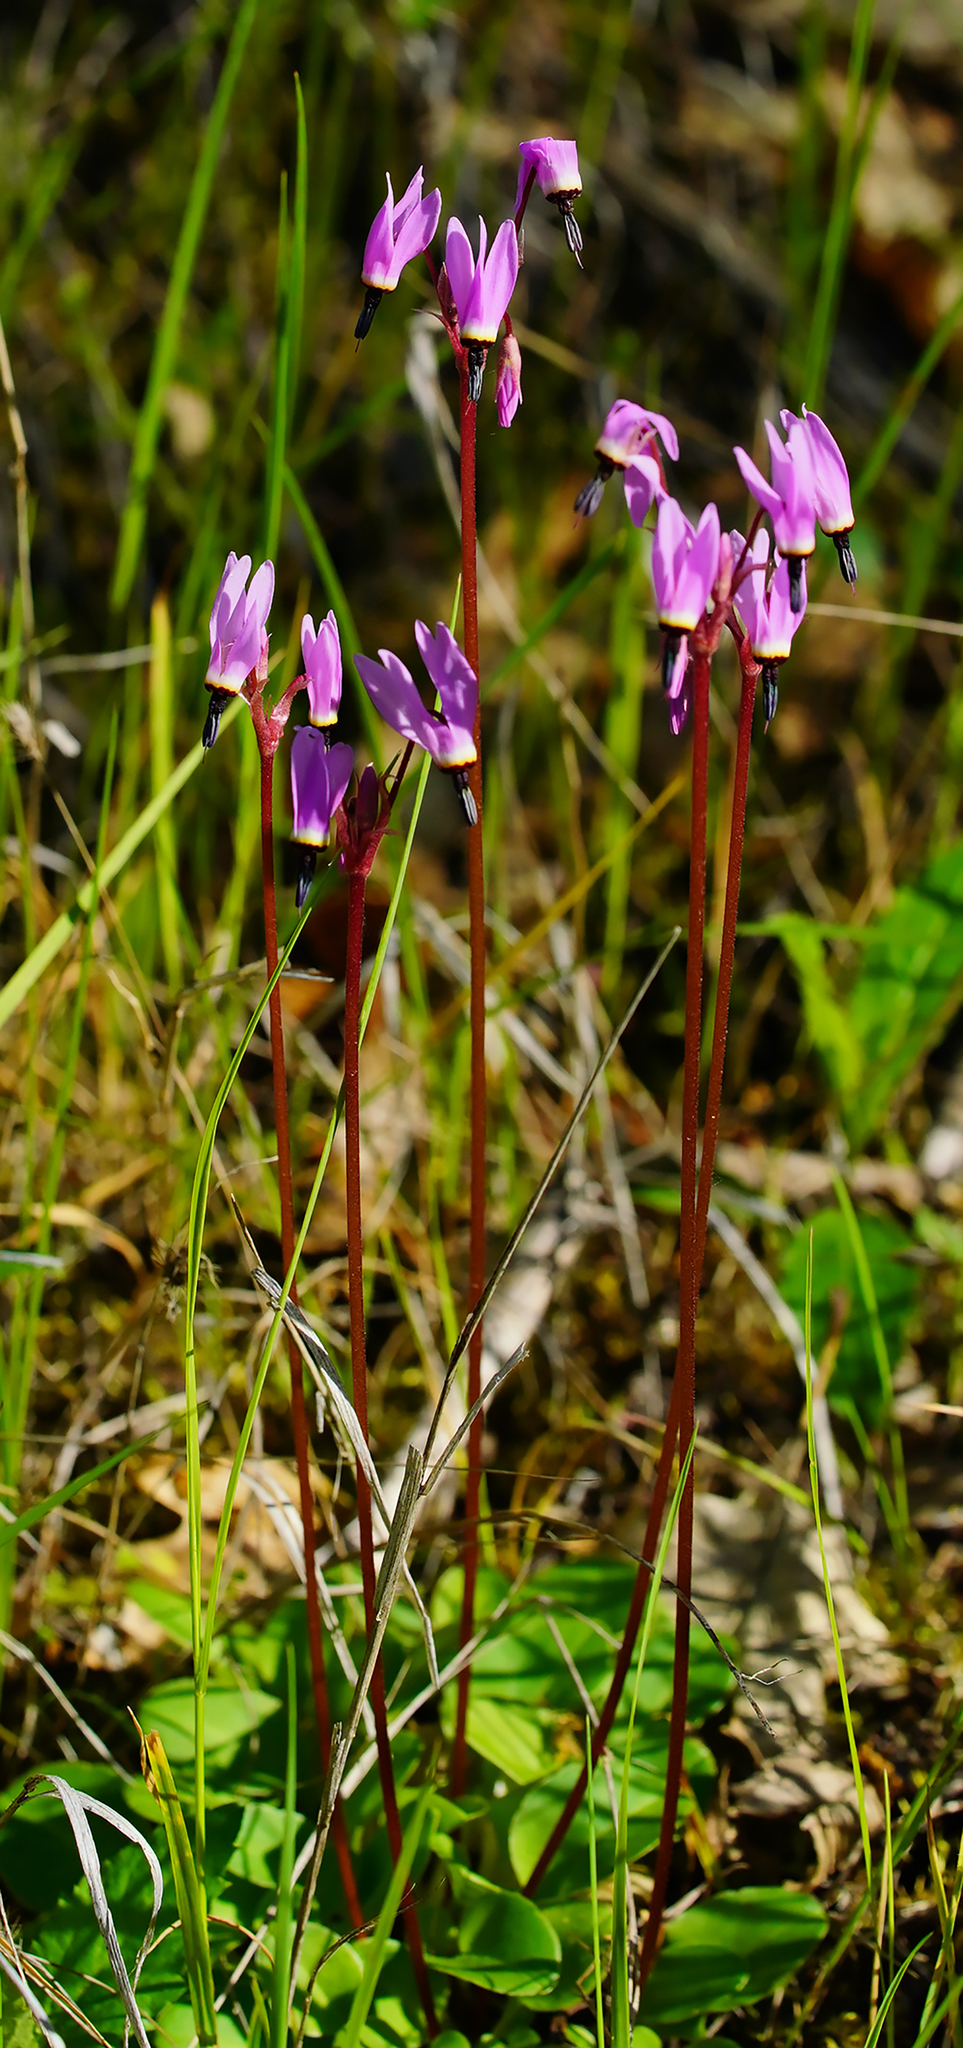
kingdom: Plantae
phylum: Tracheophyta
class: Magnoliopsida
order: Ericales
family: Primulaceae
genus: Dodecatheon
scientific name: Dodecatheon hendersonii
